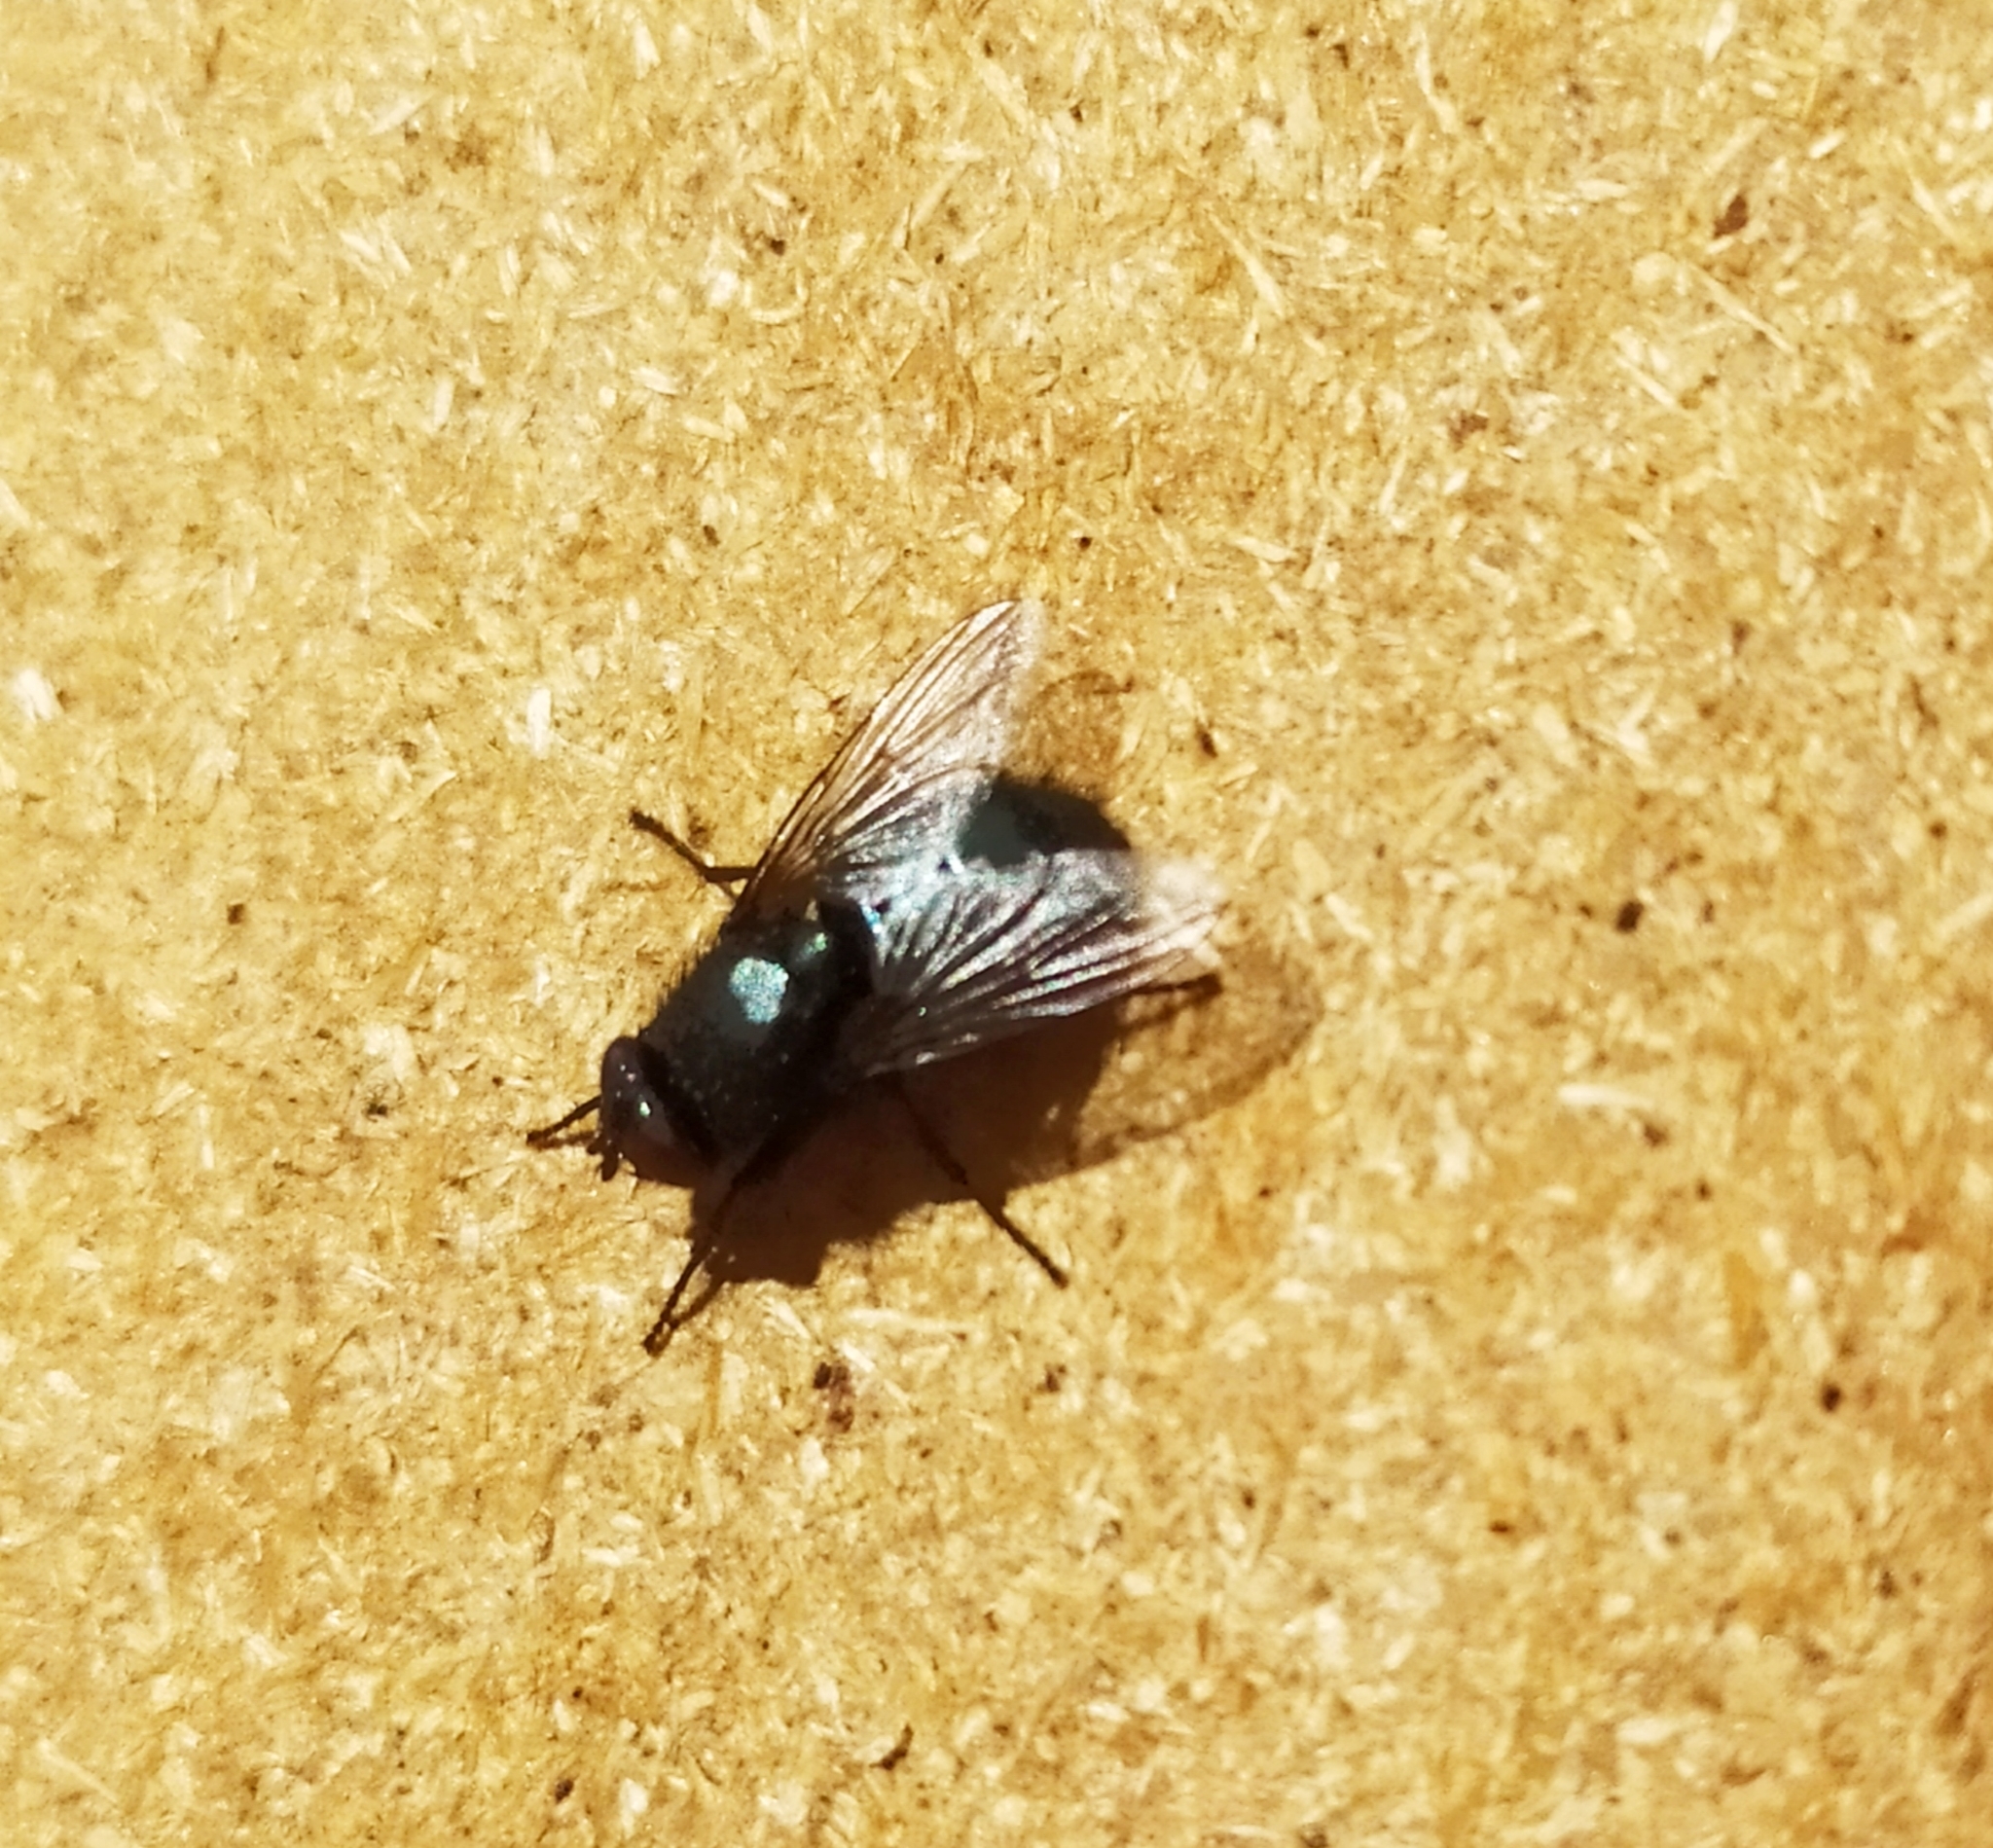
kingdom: Animalia
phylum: Arthropoda
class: Insecta
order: Diptera
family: Calliphoridae
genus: Protophormia
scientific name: Protophormia terraenovae
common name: Blackbottle
